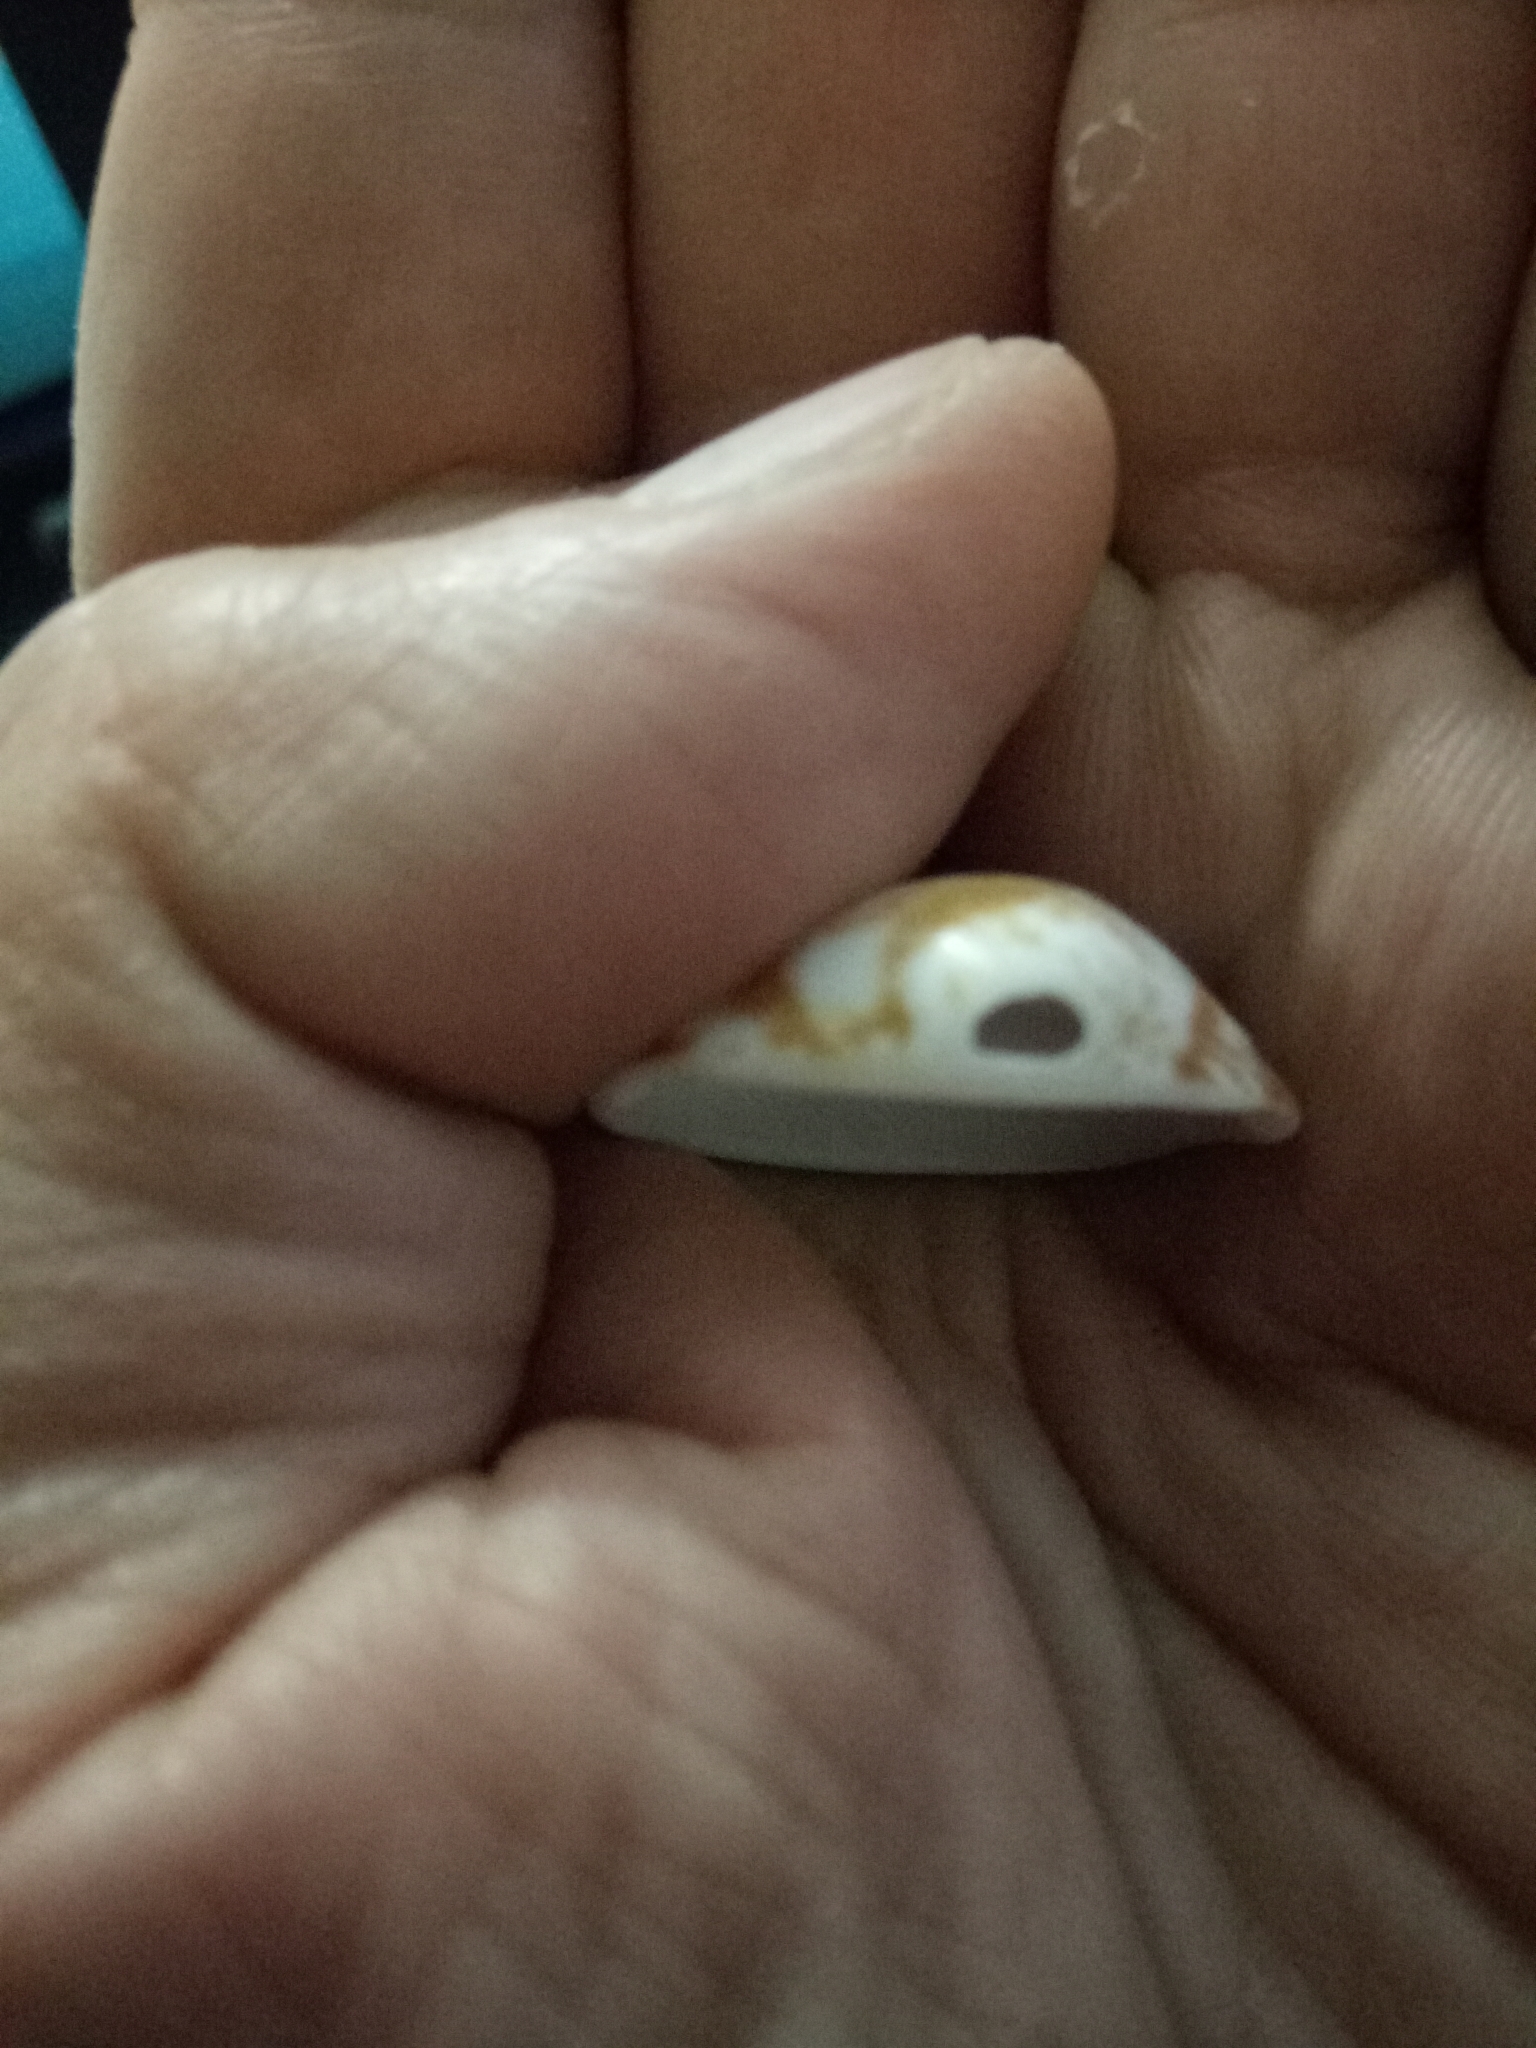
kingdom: Animalia
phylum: Mollusca
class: Bivalvia
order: Arcida
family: Glycymerididae
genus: Glycymeris
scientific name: Glycymeris glycymeris
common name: Dog-cockle
